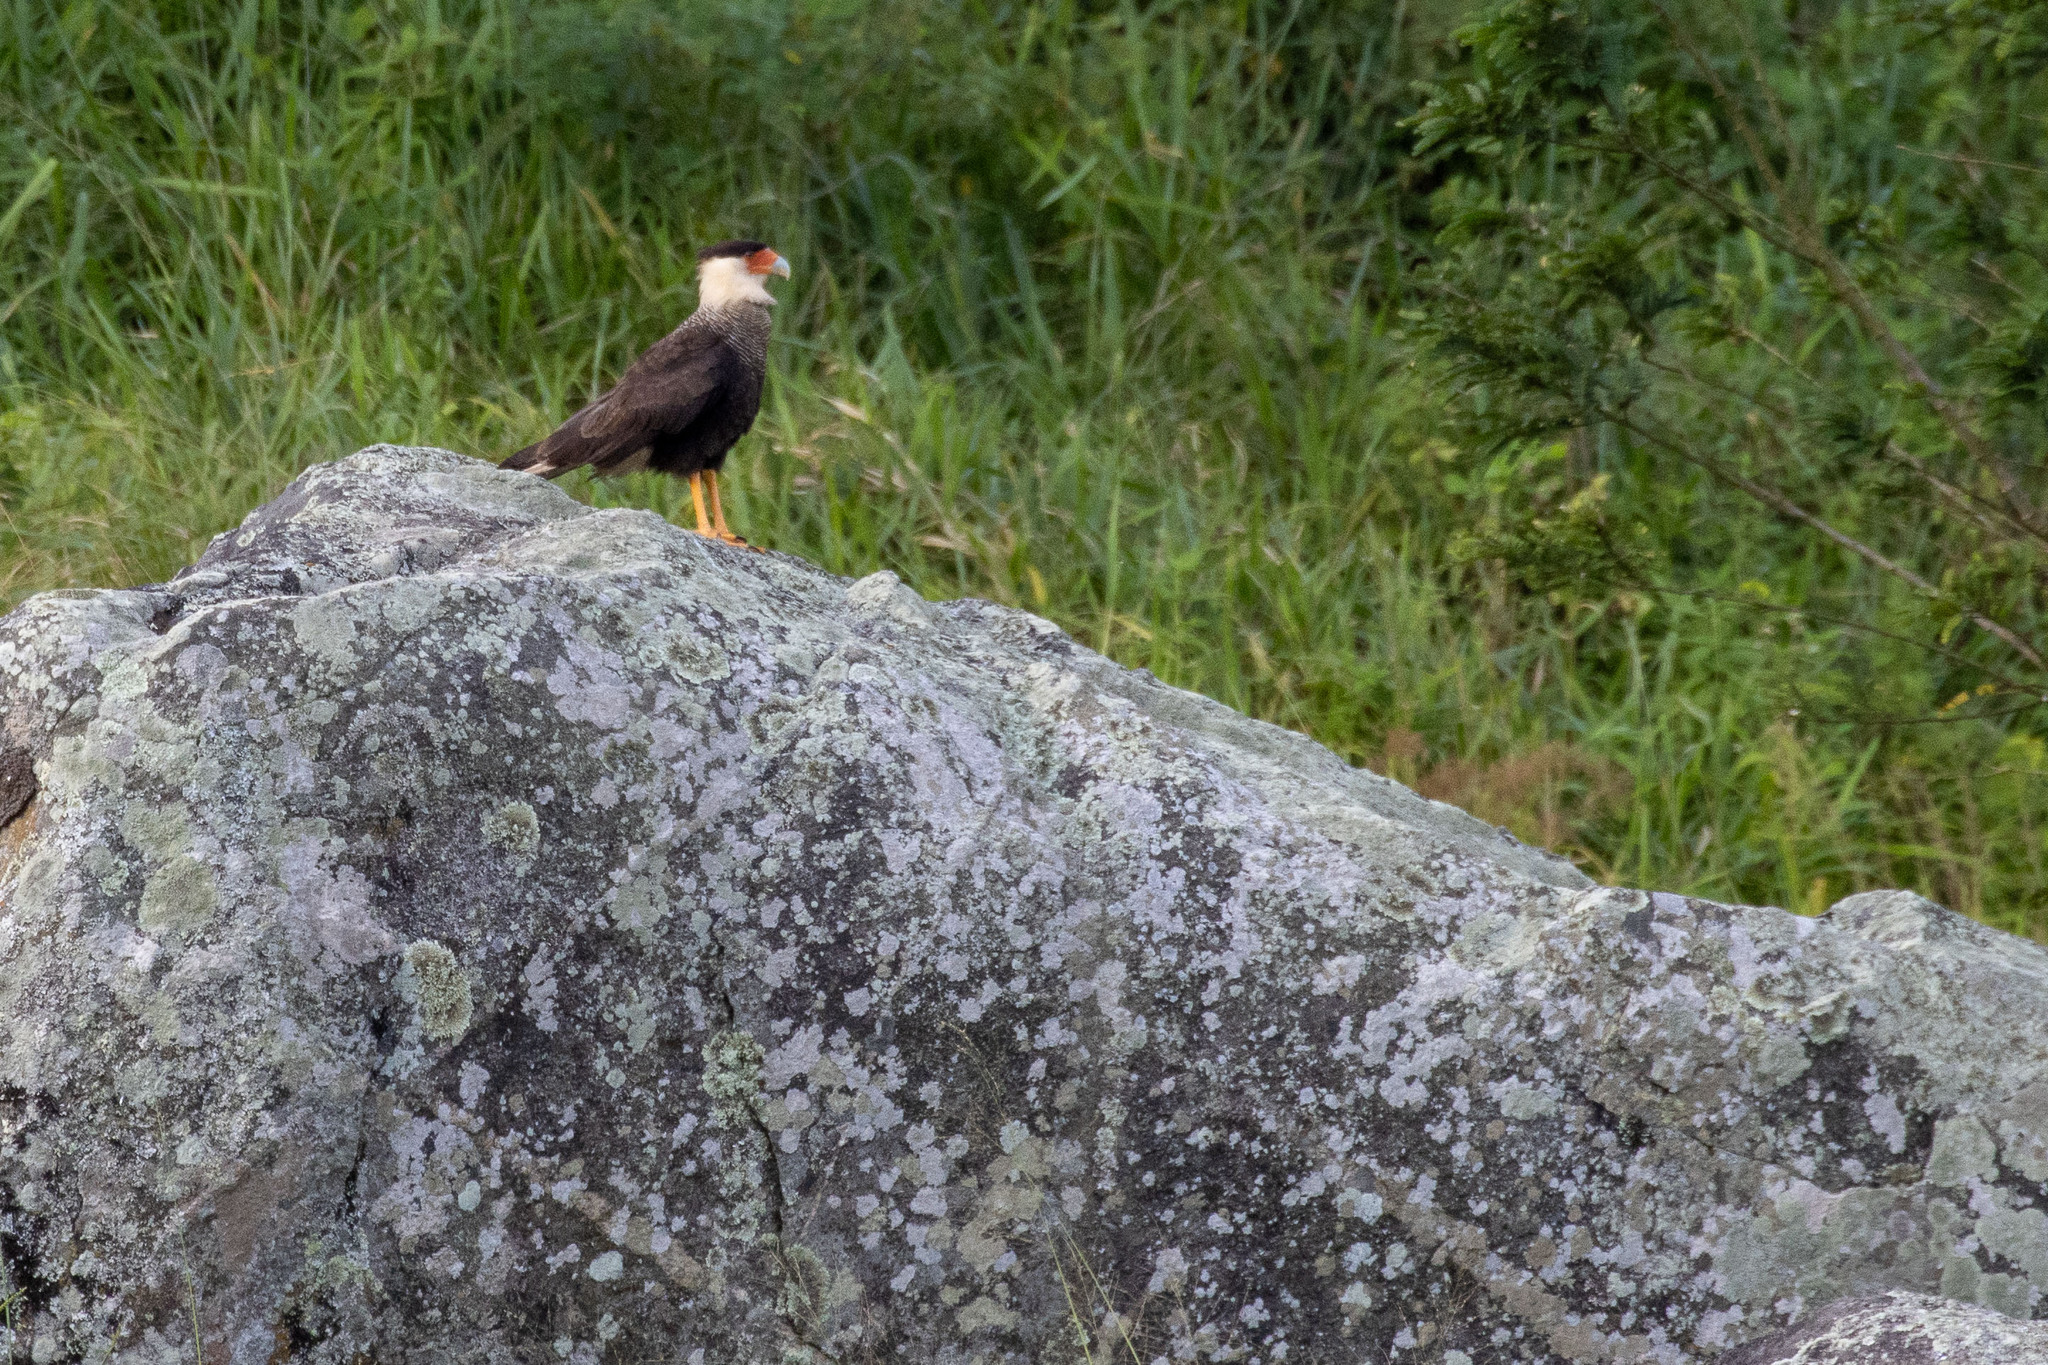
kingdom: Animalia
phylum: Chordata
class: Aves
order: Falconiformes
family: Falconidae
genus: Caracara
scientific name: Caracara plancus
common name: Southern caracara
